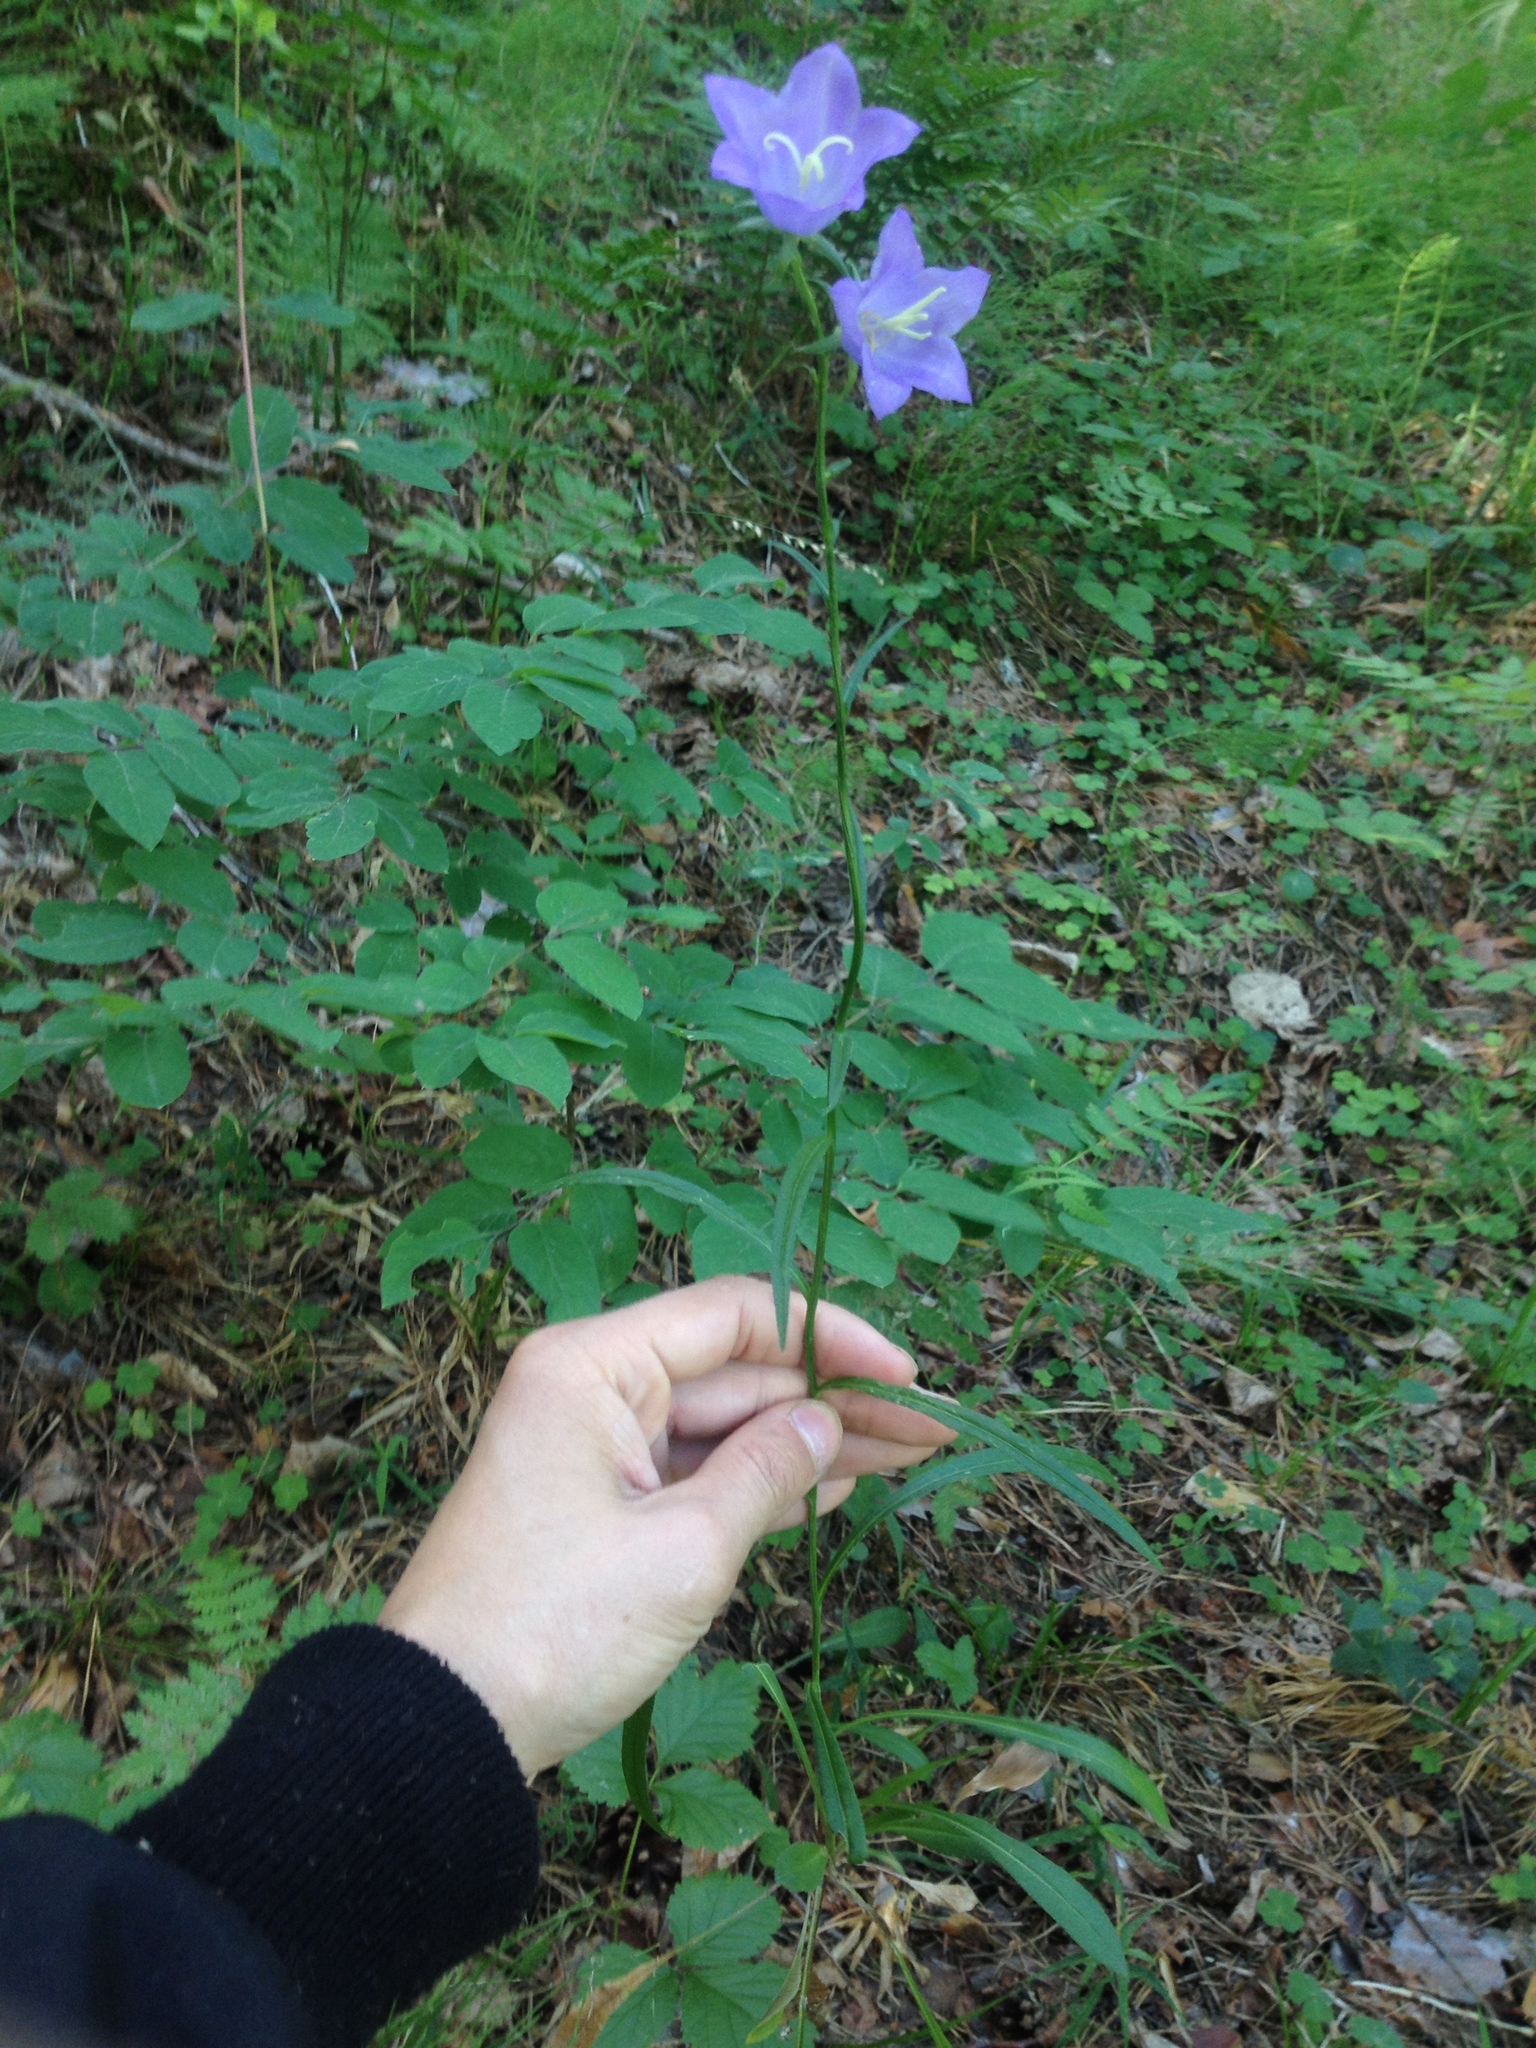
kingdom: Plantae
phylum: Tracheophyta
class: Magnoliopsida
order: Asterales
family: Campanulaceae
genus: Campanula
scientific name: Campanula persicifolia
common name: Peach-leaved bellflower
